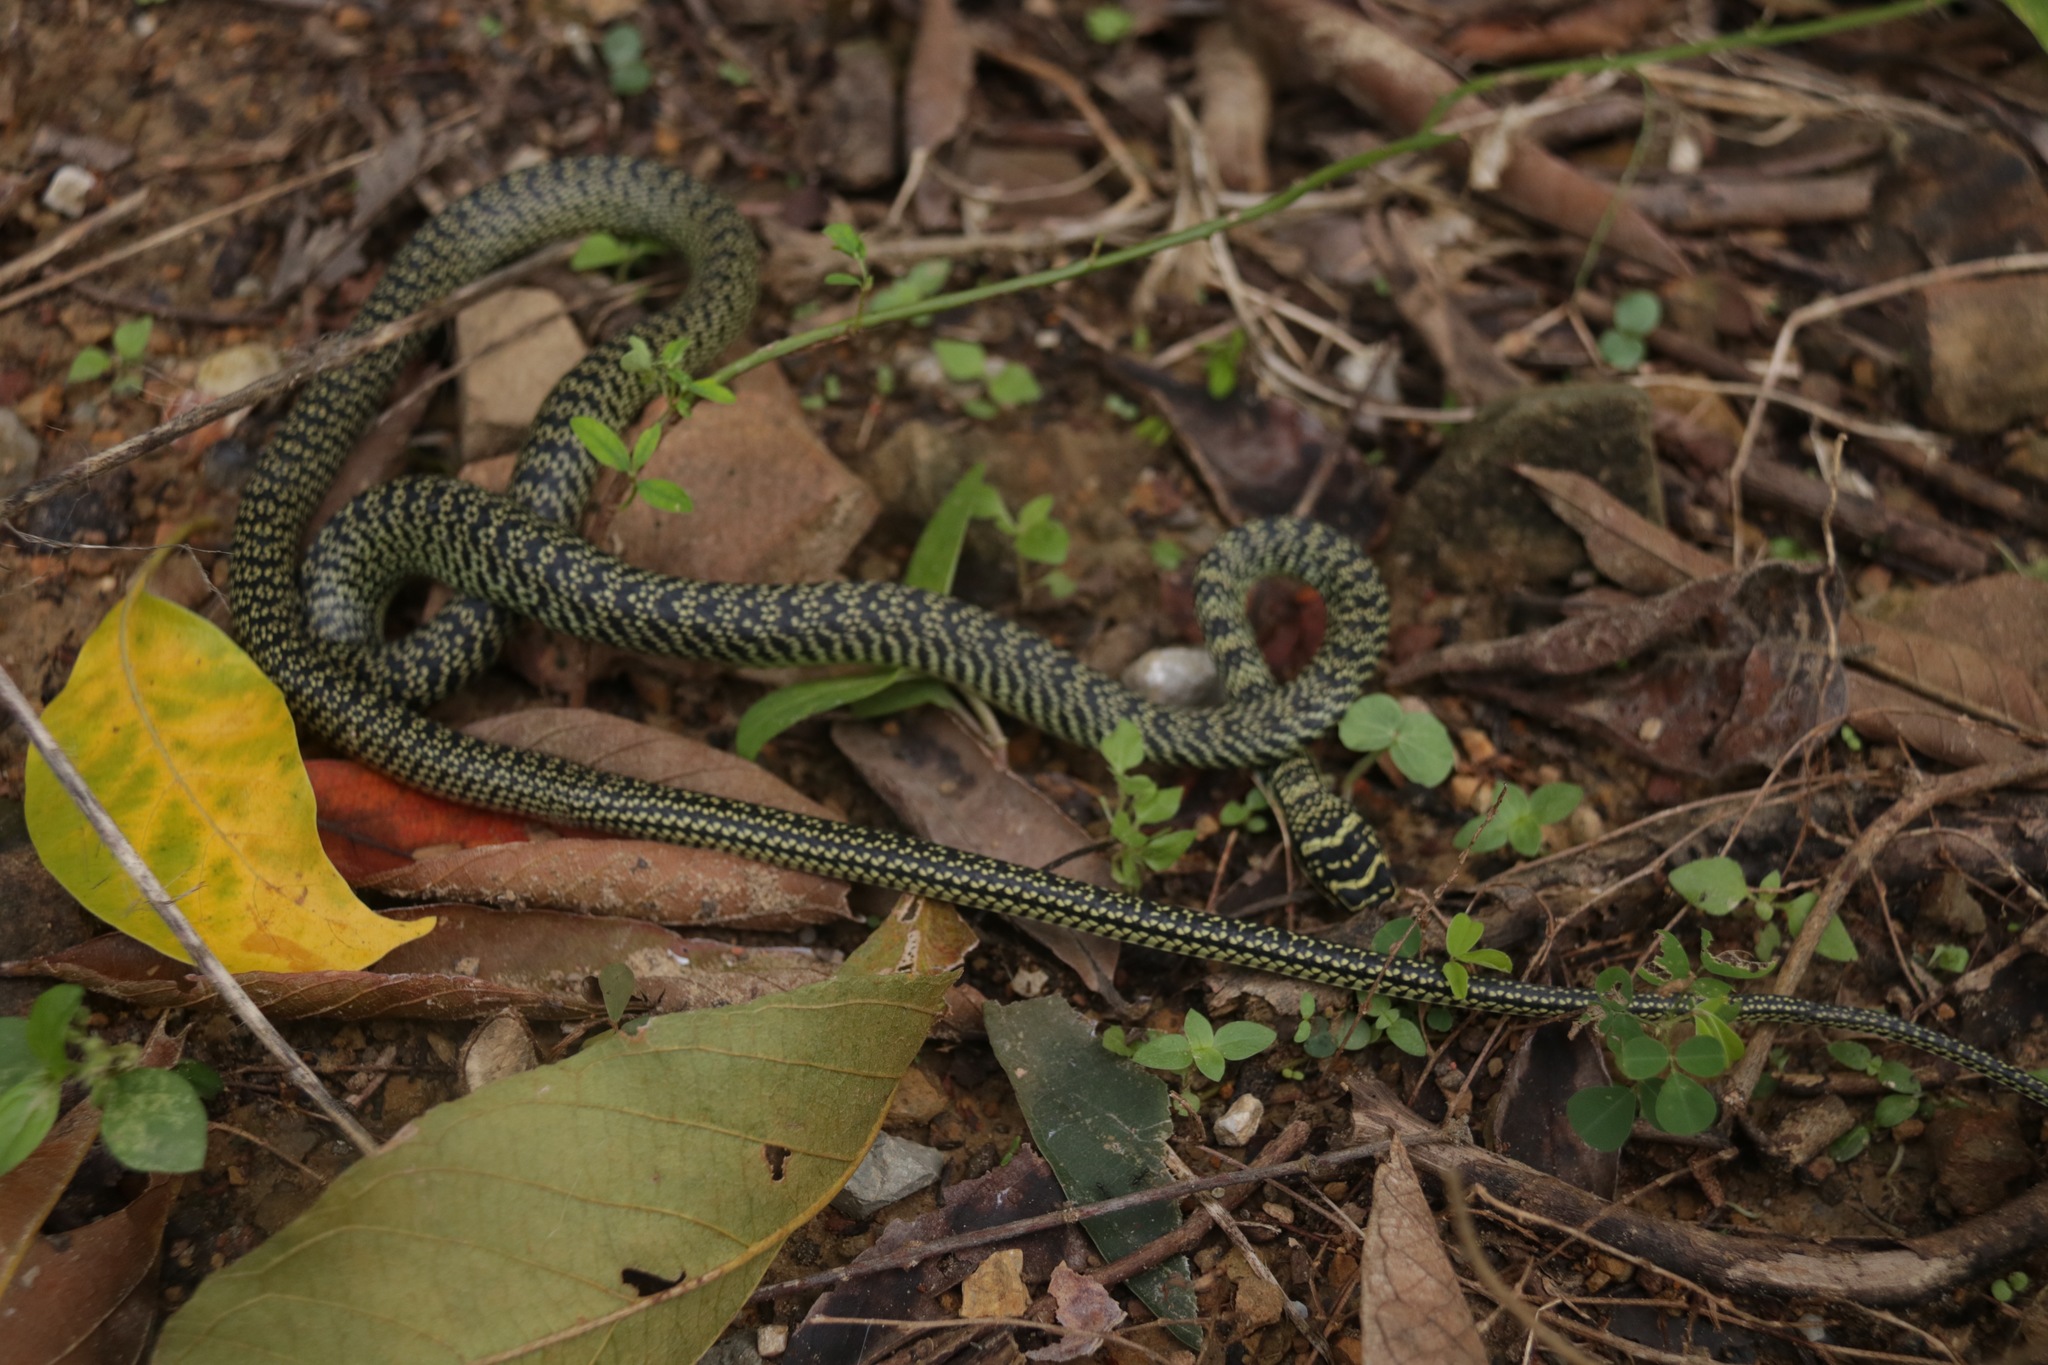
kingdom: Animalia
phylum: Chordata
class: Squamata
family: Colubridae
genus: Chrysopelea
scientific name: Chrysopelea ornata
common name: Golden flying snake
